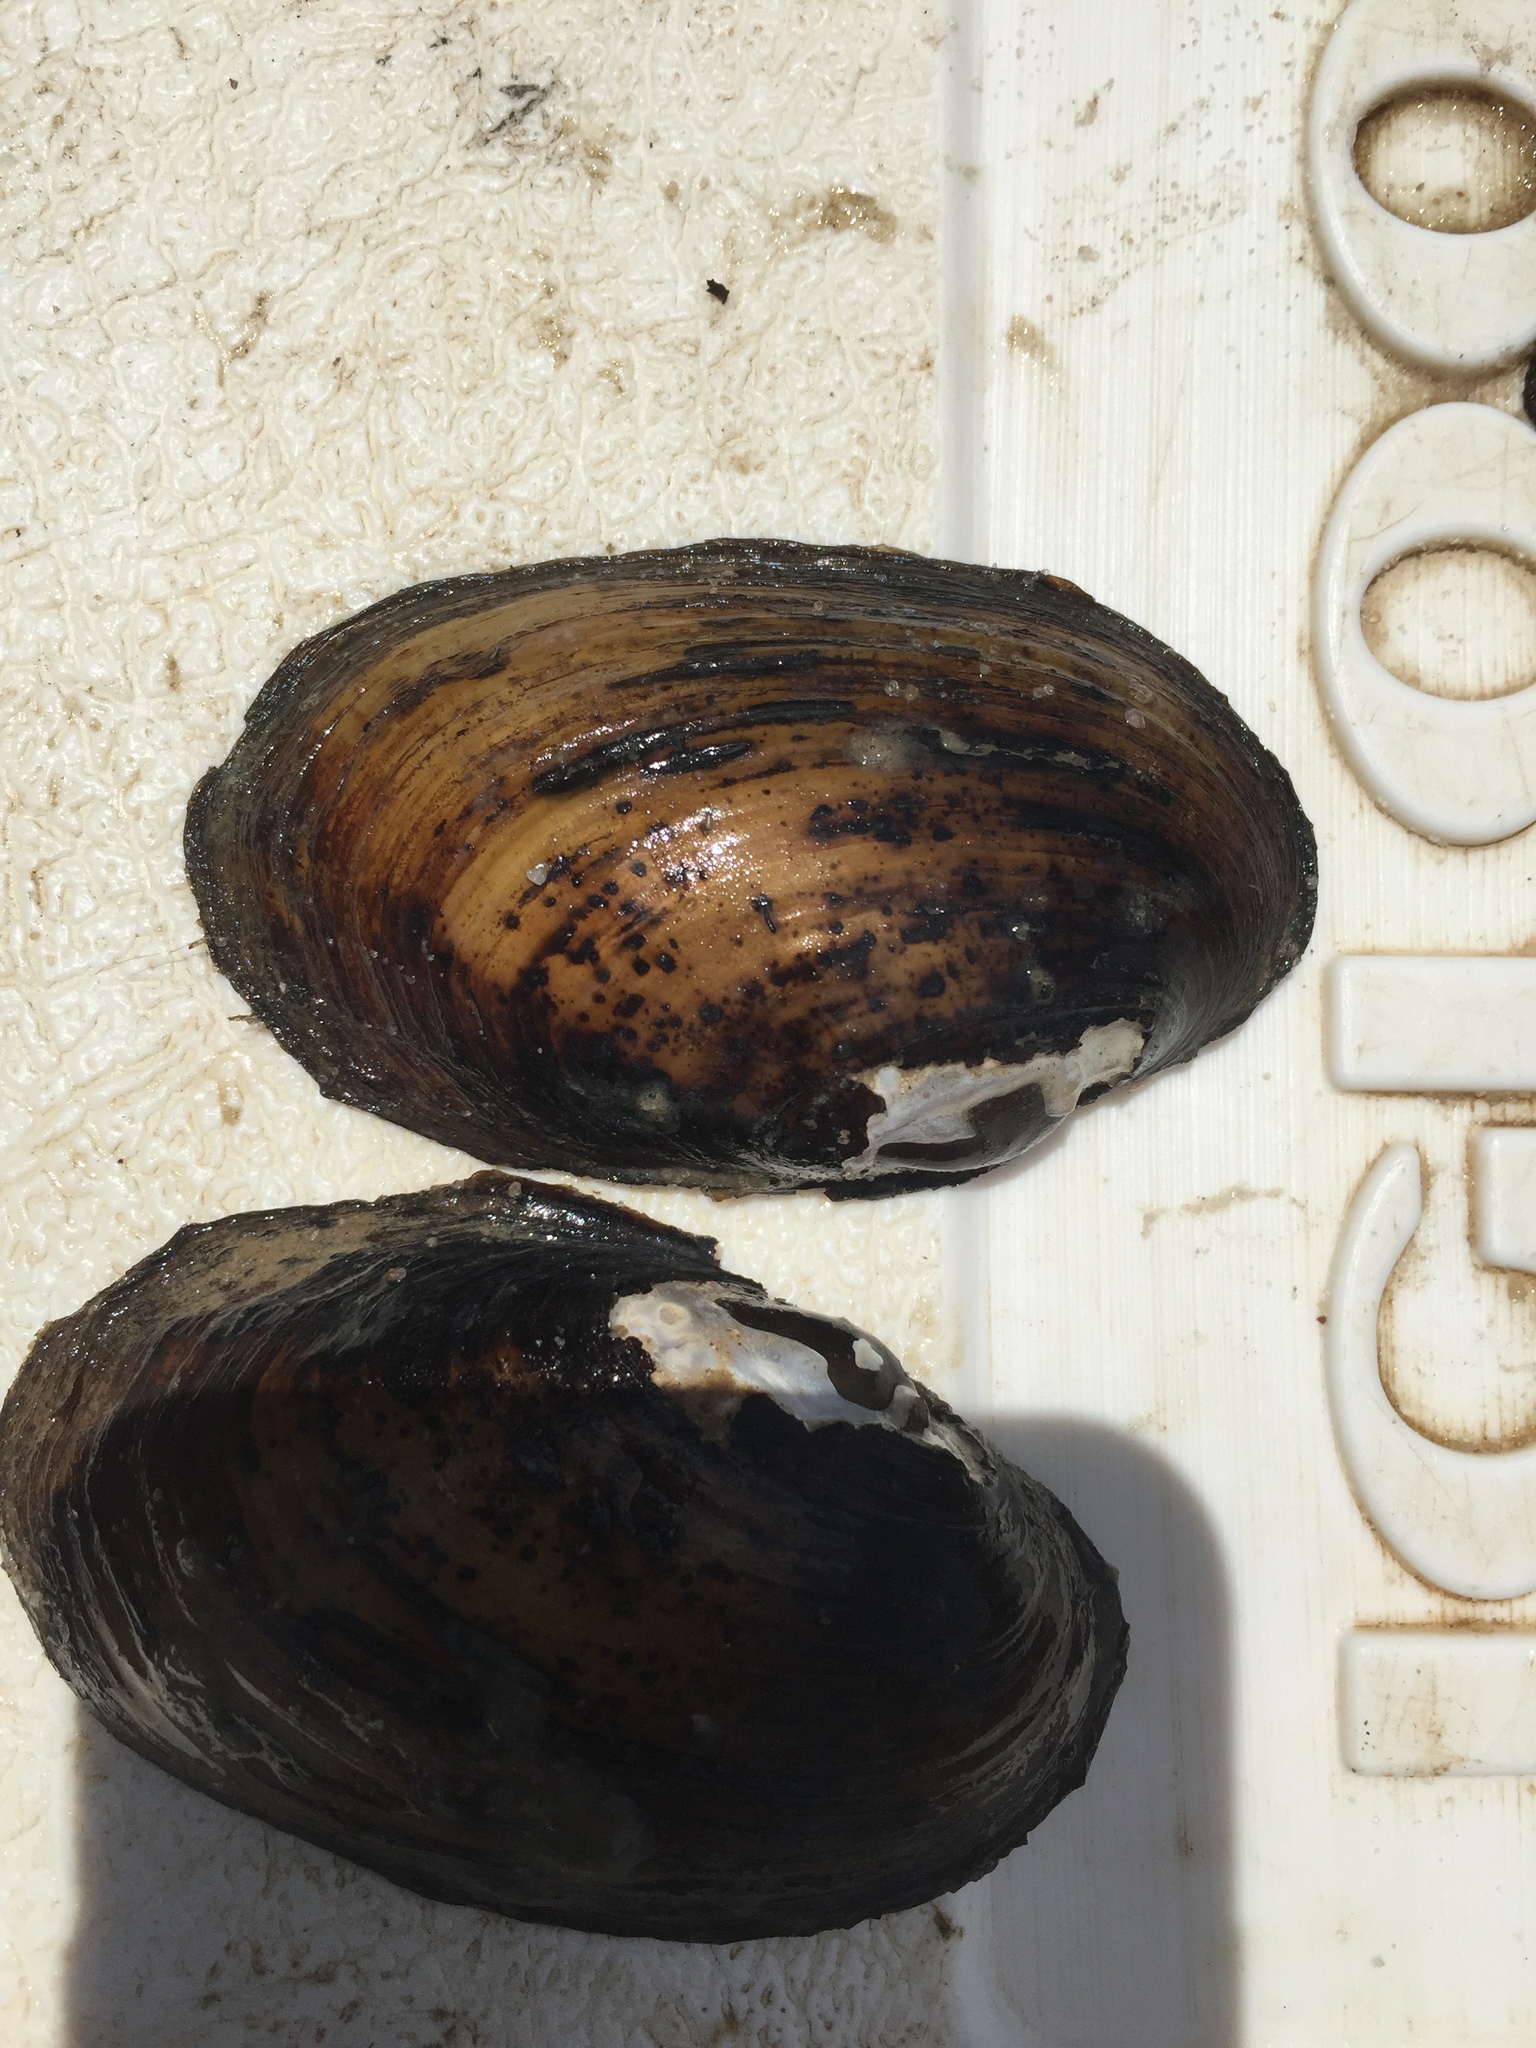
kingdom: Animalia
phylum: Mollusca
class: Bivalvia
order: Unionida
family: Unionidae
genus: Lampsilis
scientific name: Lampsilis straminea
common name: Rough fatmucket
